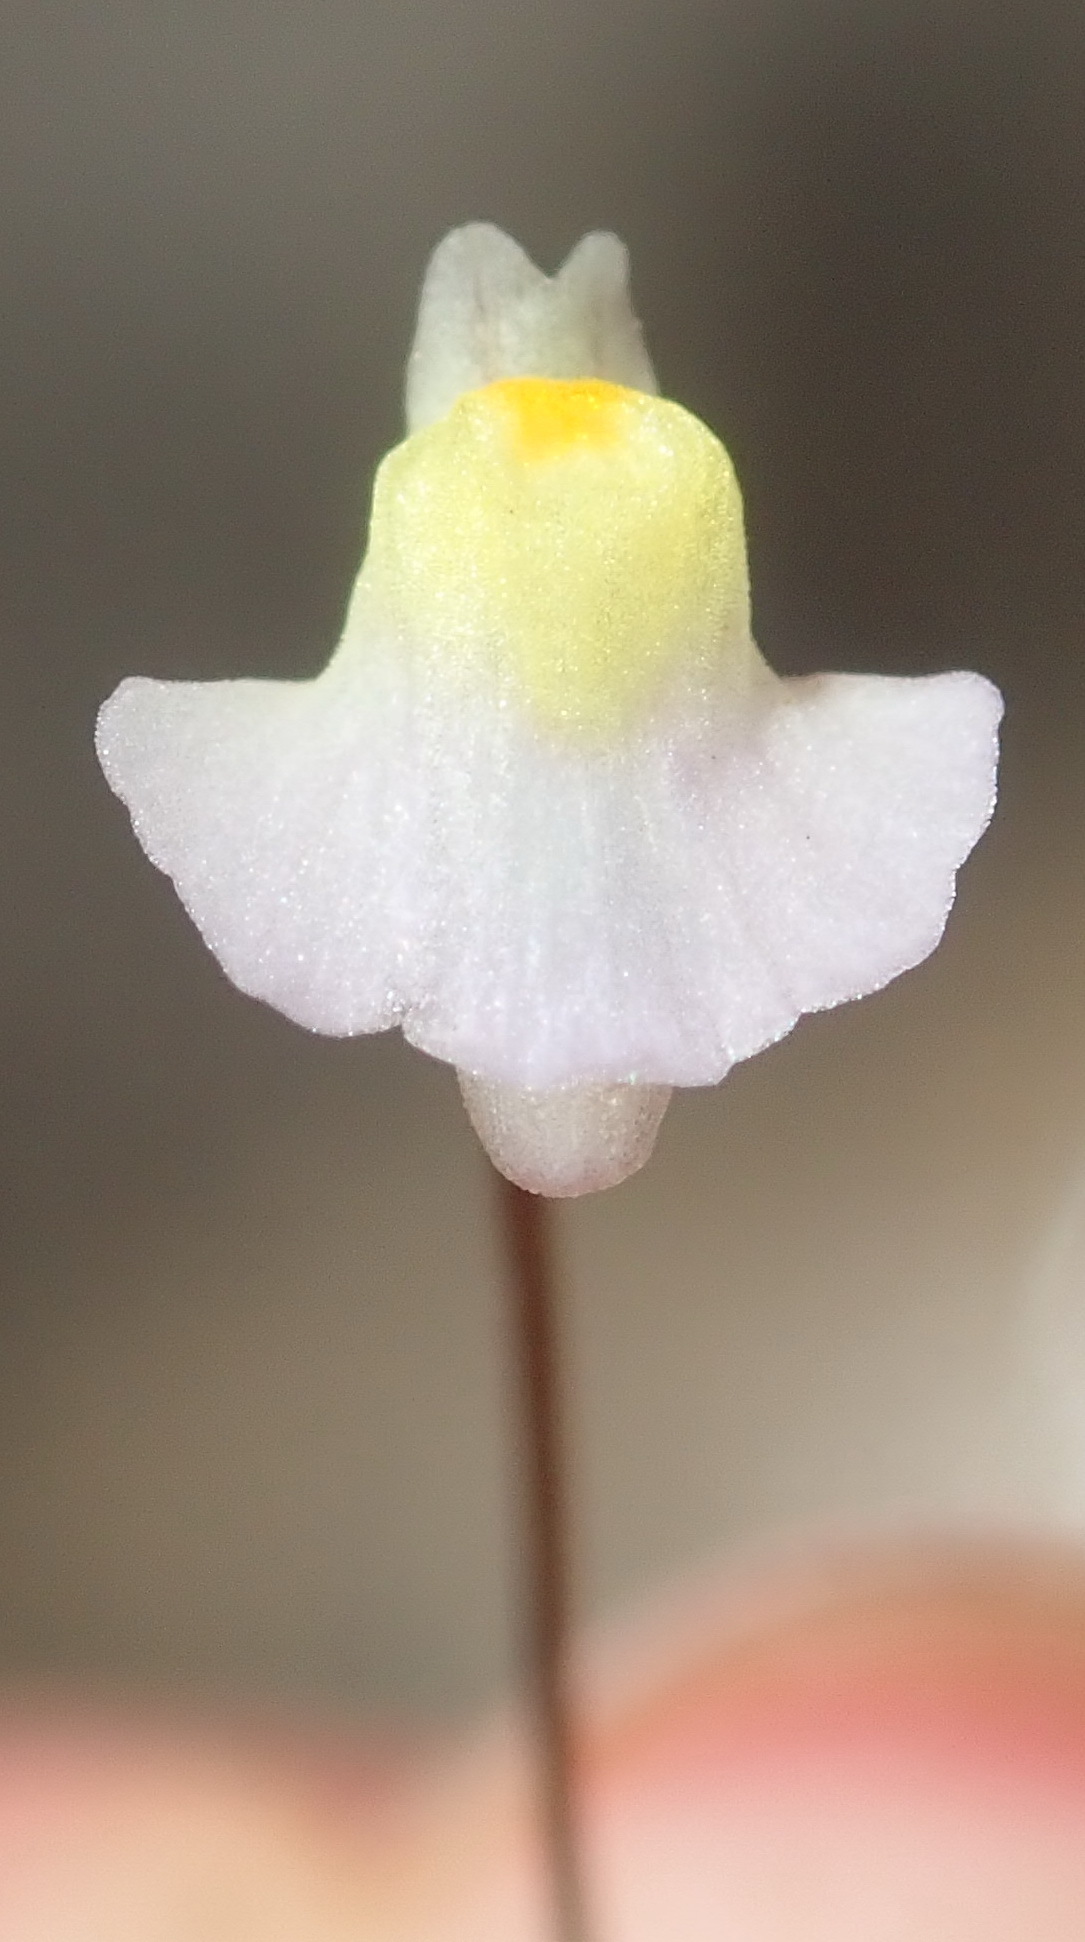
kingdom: Plantae
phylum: Tracheophyta
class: Magnoliopsida
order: Lamiales
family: Lentibulariaceae
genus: Utricularia
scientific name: Utricularia bisquamata
